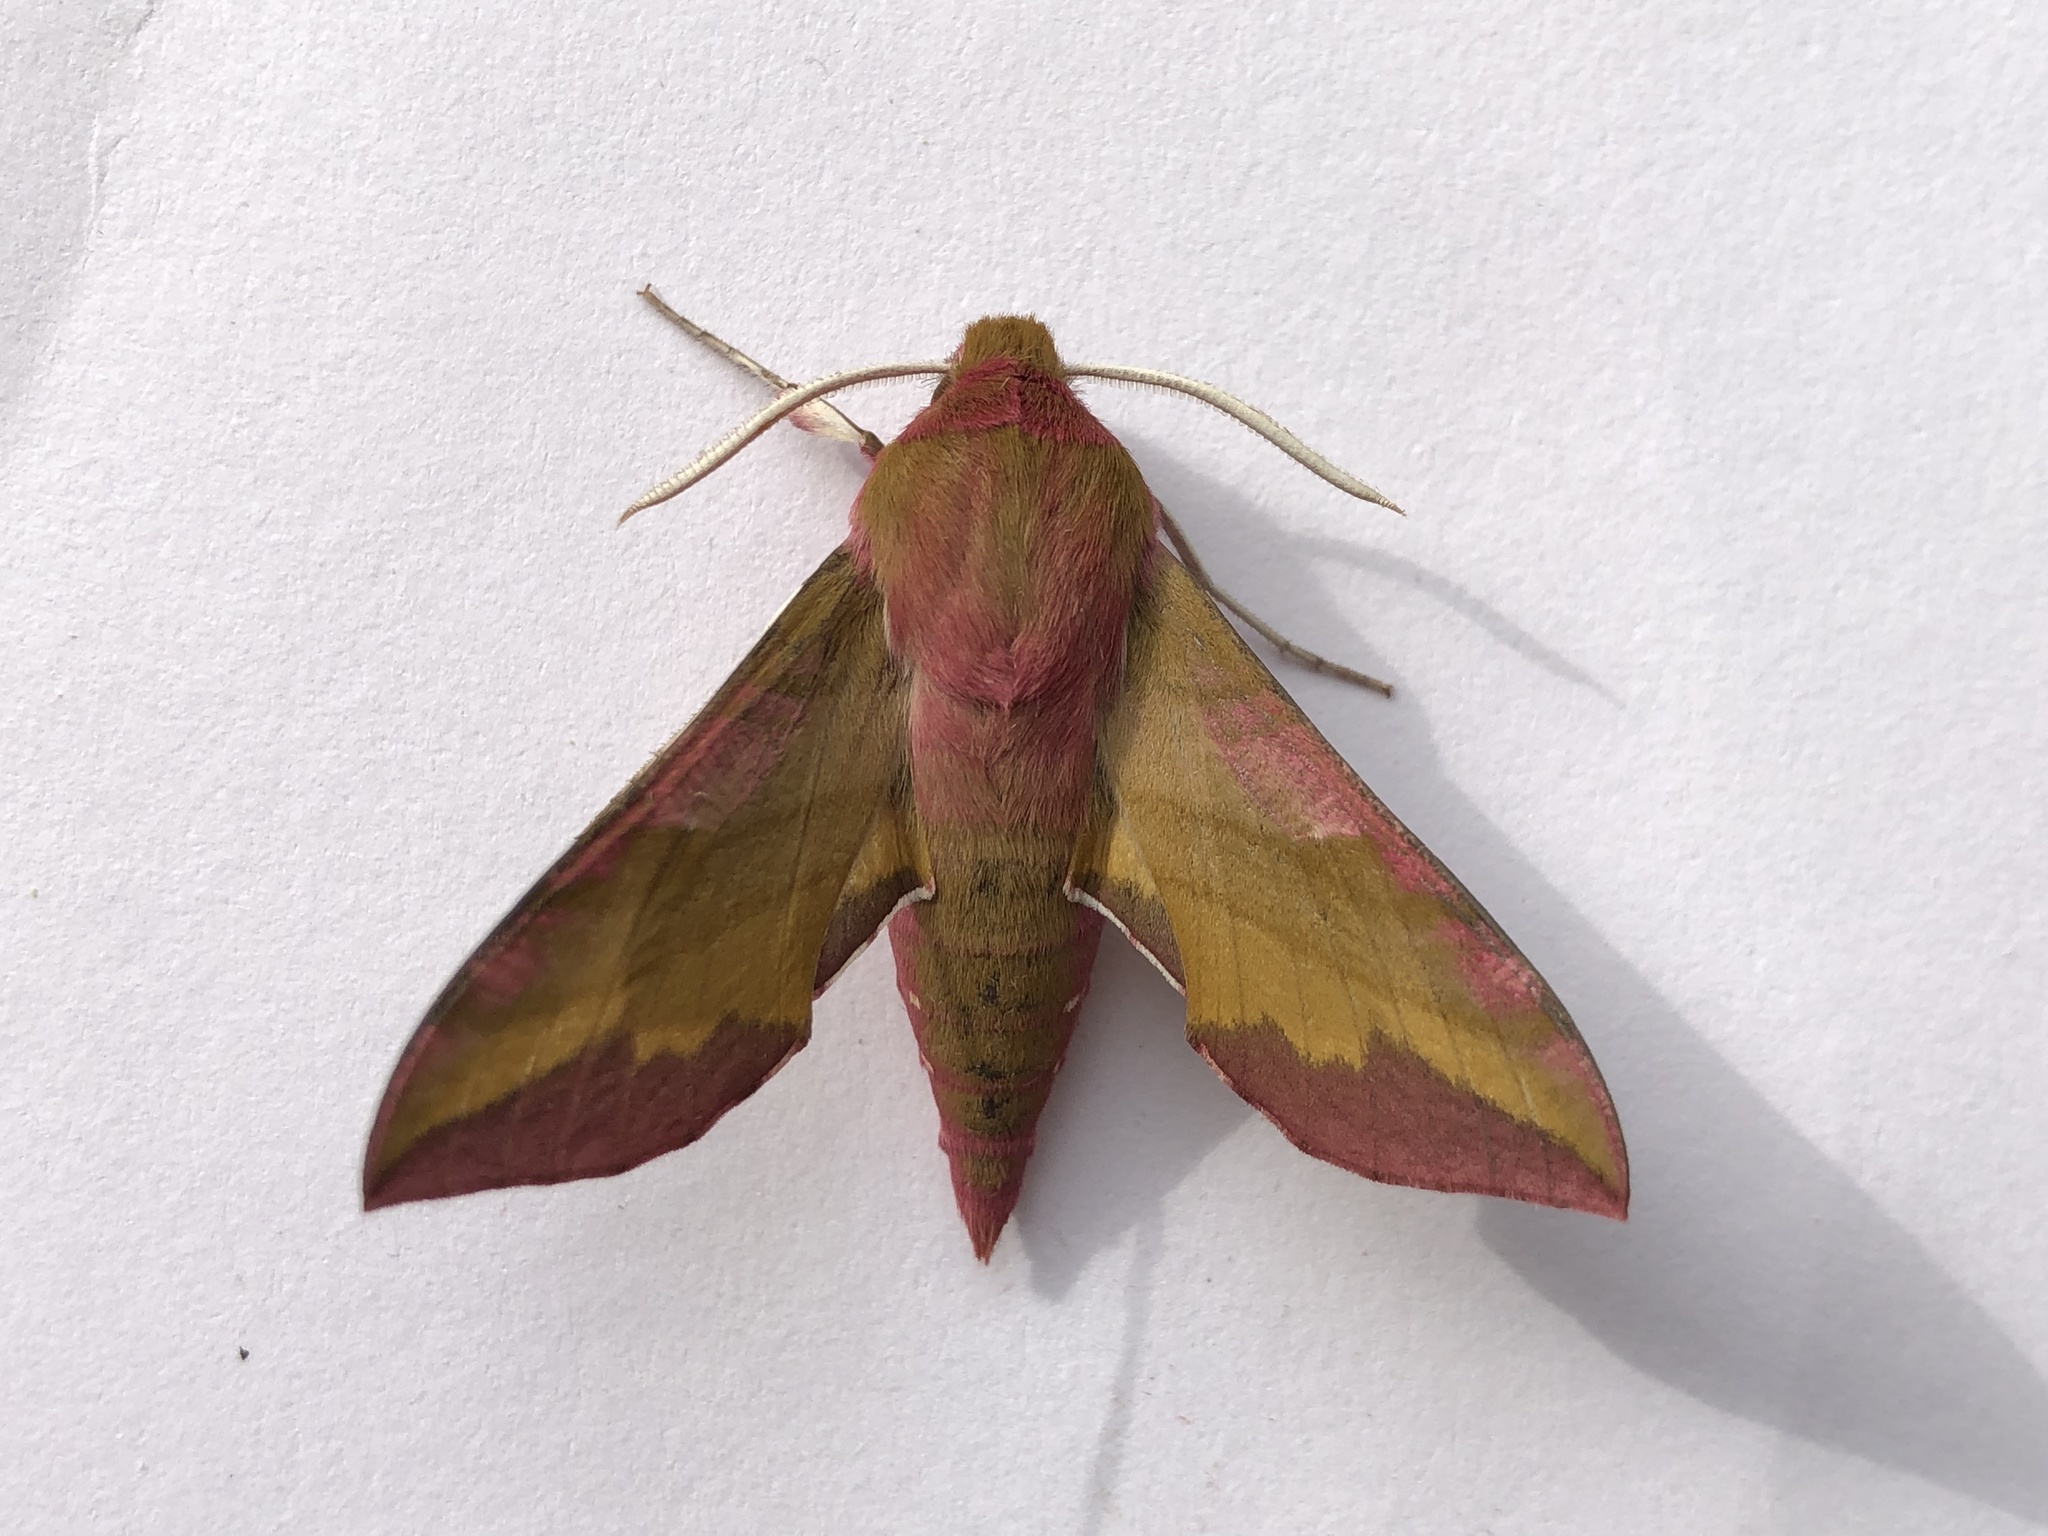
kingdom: Animalia
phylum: Arthropoda
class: Insecta
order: Lepidoptera
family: Sphingidae
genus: Deilephila
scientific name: Deilephila porcellus
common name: Small elephant hawk-moth
